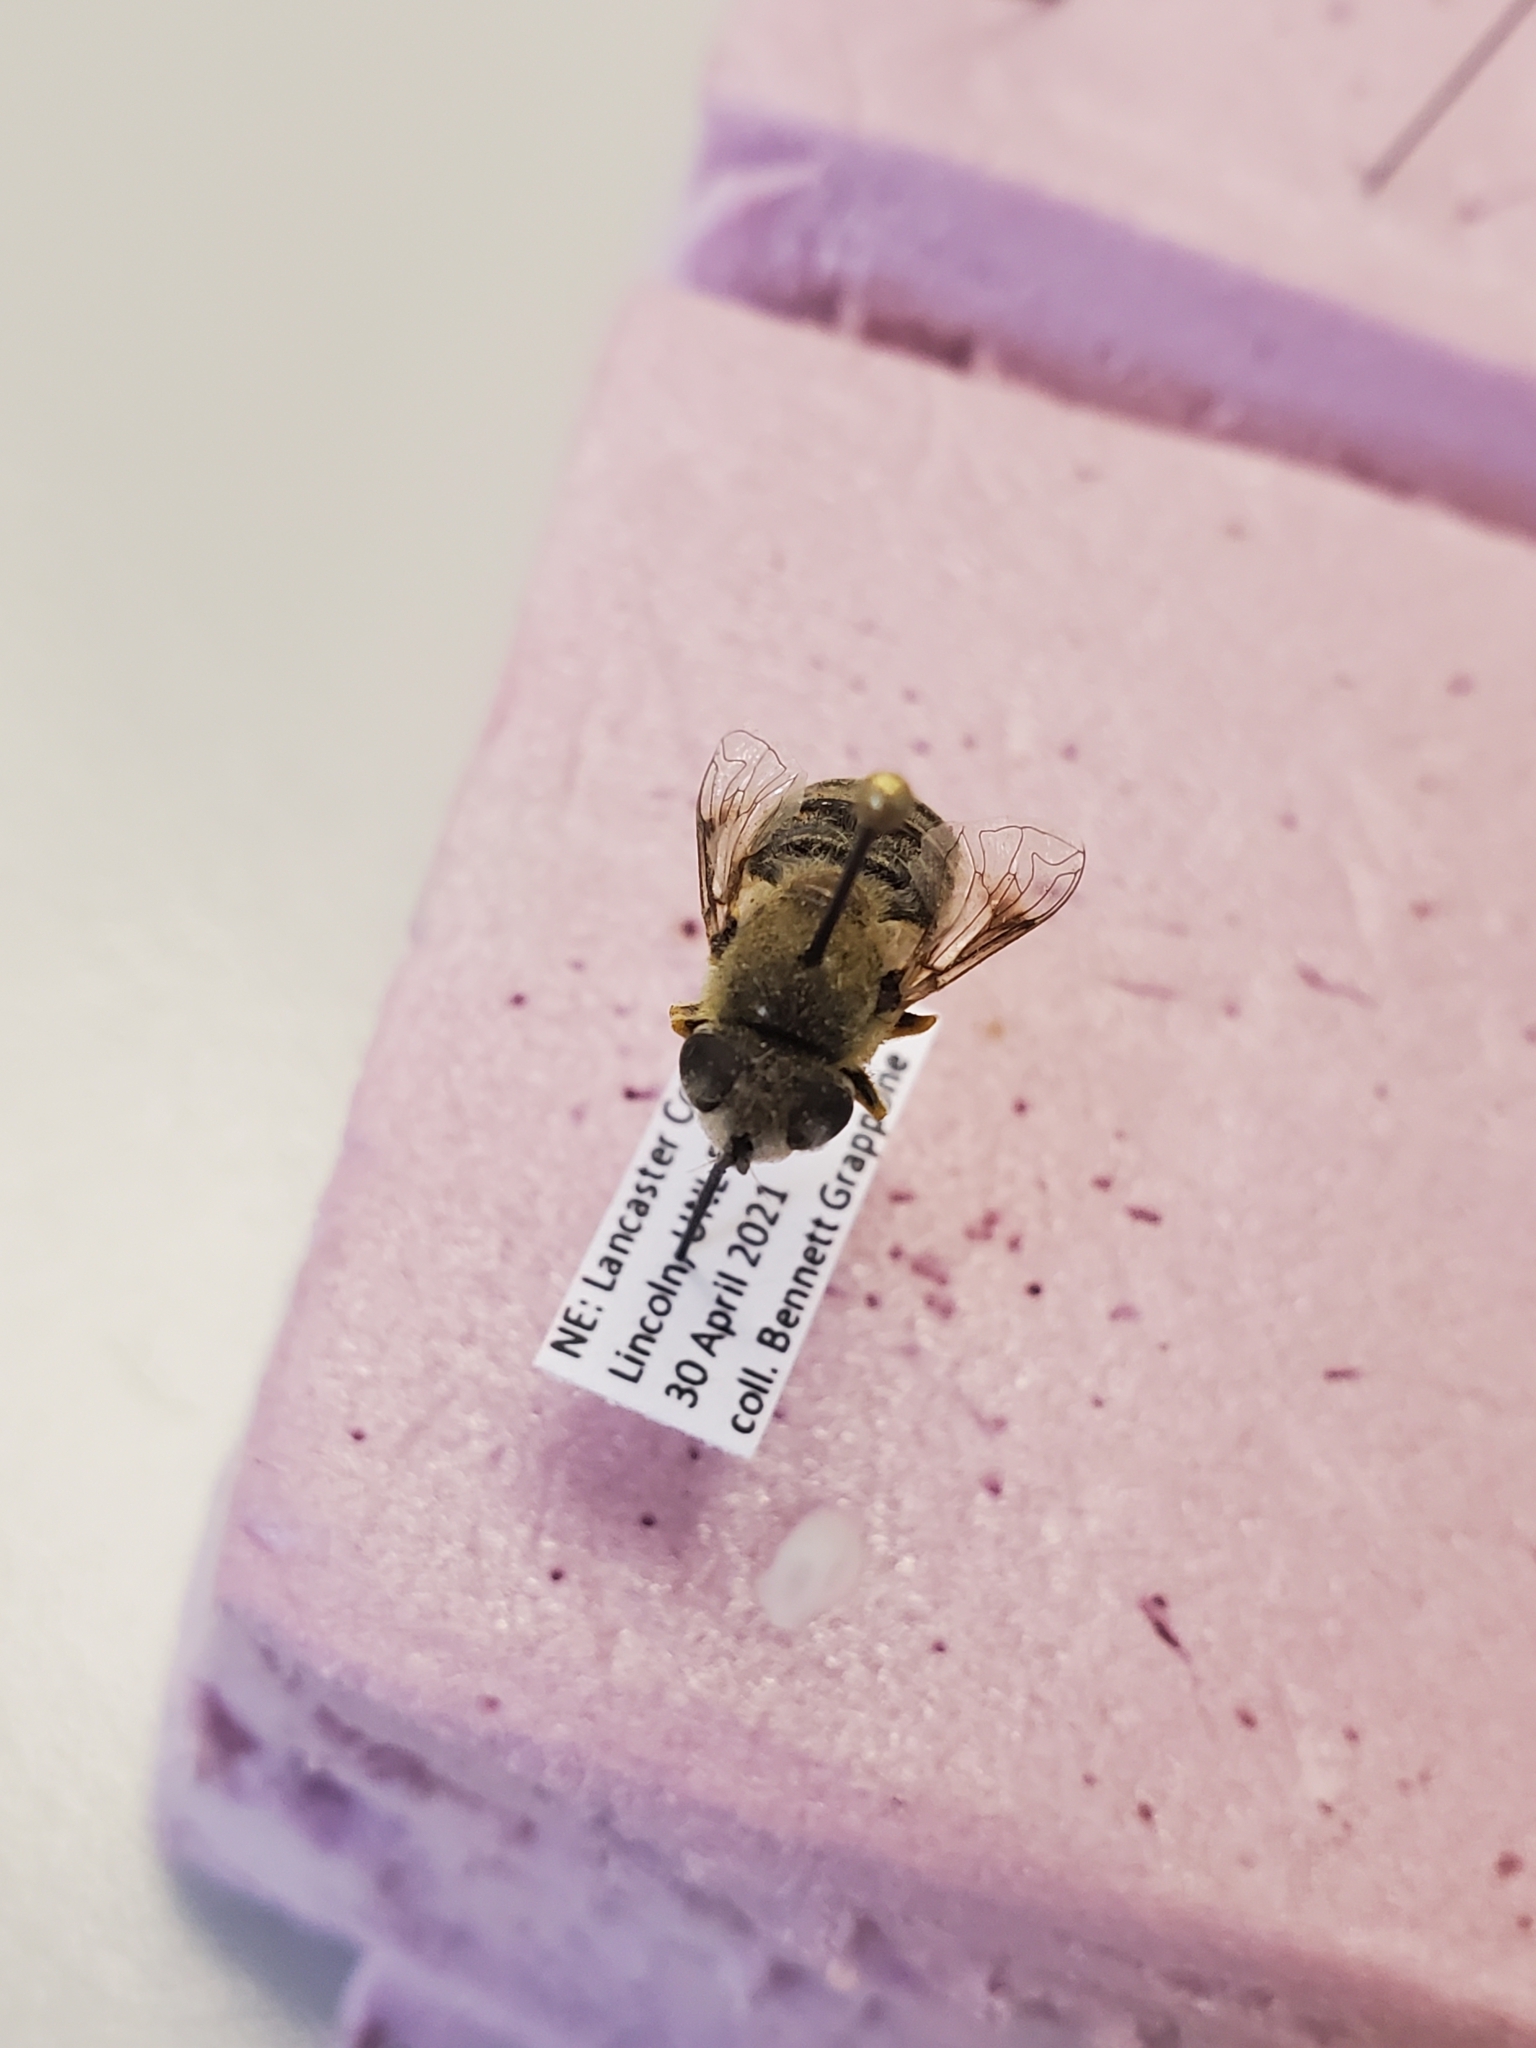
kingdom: Animalia
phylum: Arthropoda
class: Insecta
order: Diptera
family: Syrphidae
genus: Eristalis
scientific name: Eristalis stipator
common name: Yellow-shouldered drone fly
